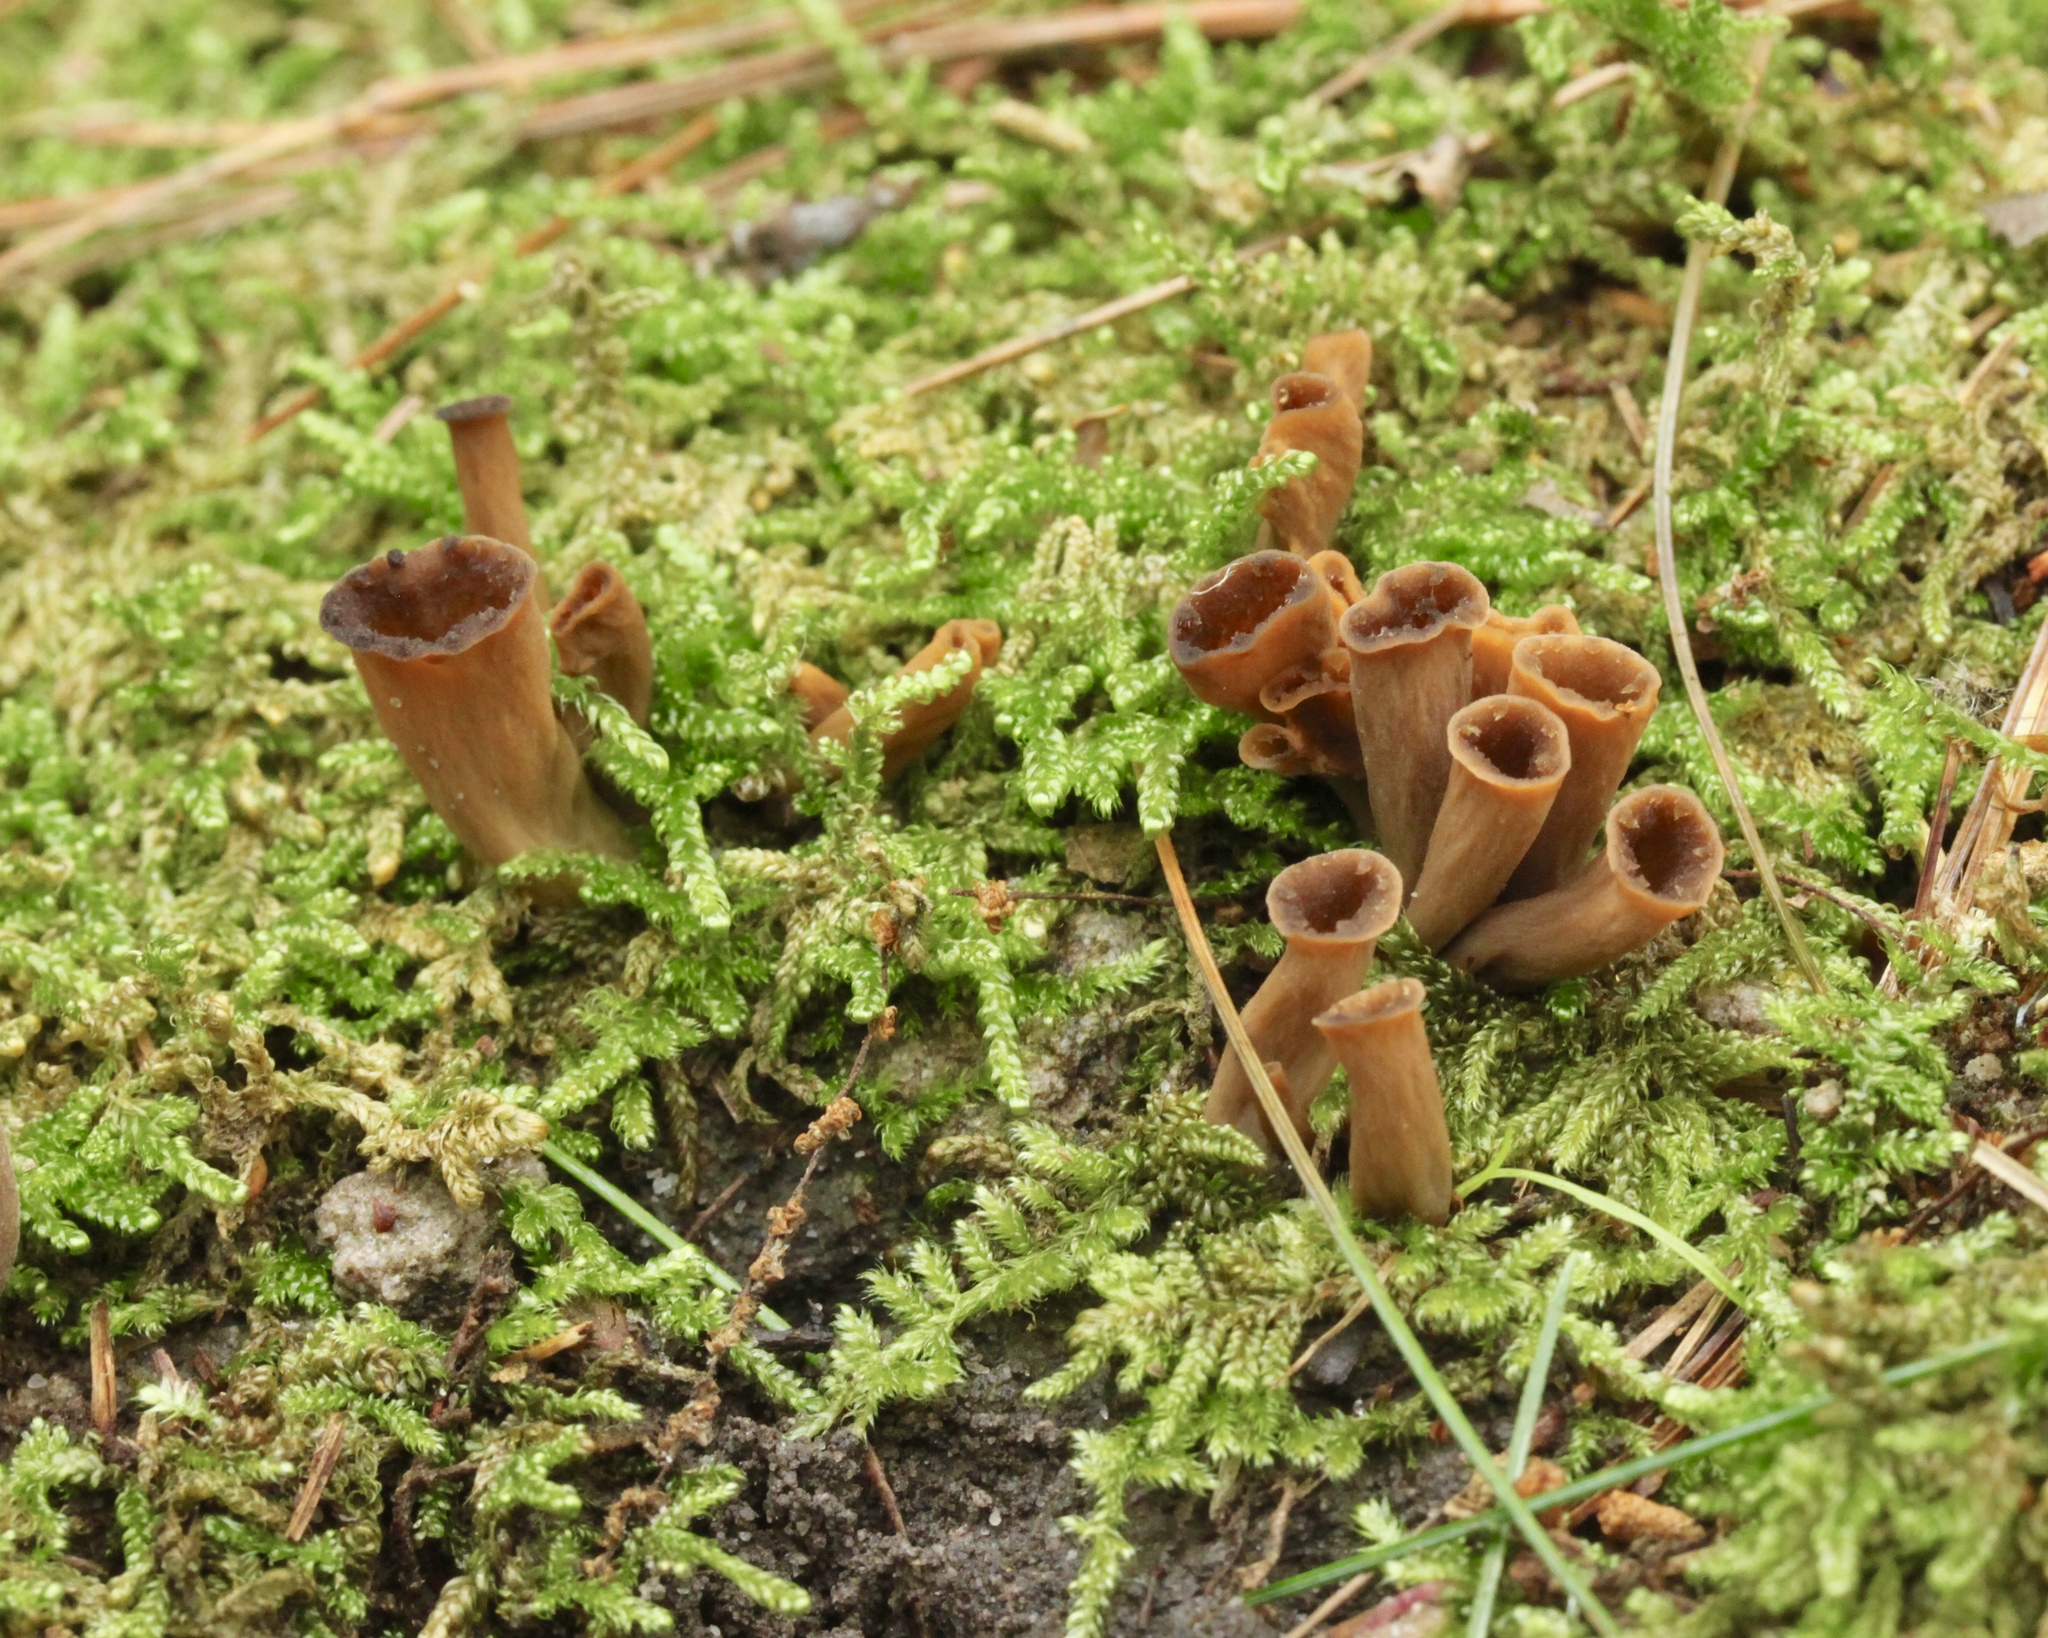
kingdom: Fungi
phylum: Basidiomycota
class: Agaricomycetes
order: Cantharellales
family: Hydnaceae
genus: Craterellus
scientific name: Craterellus cornucopioides
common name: Horn of plenty
